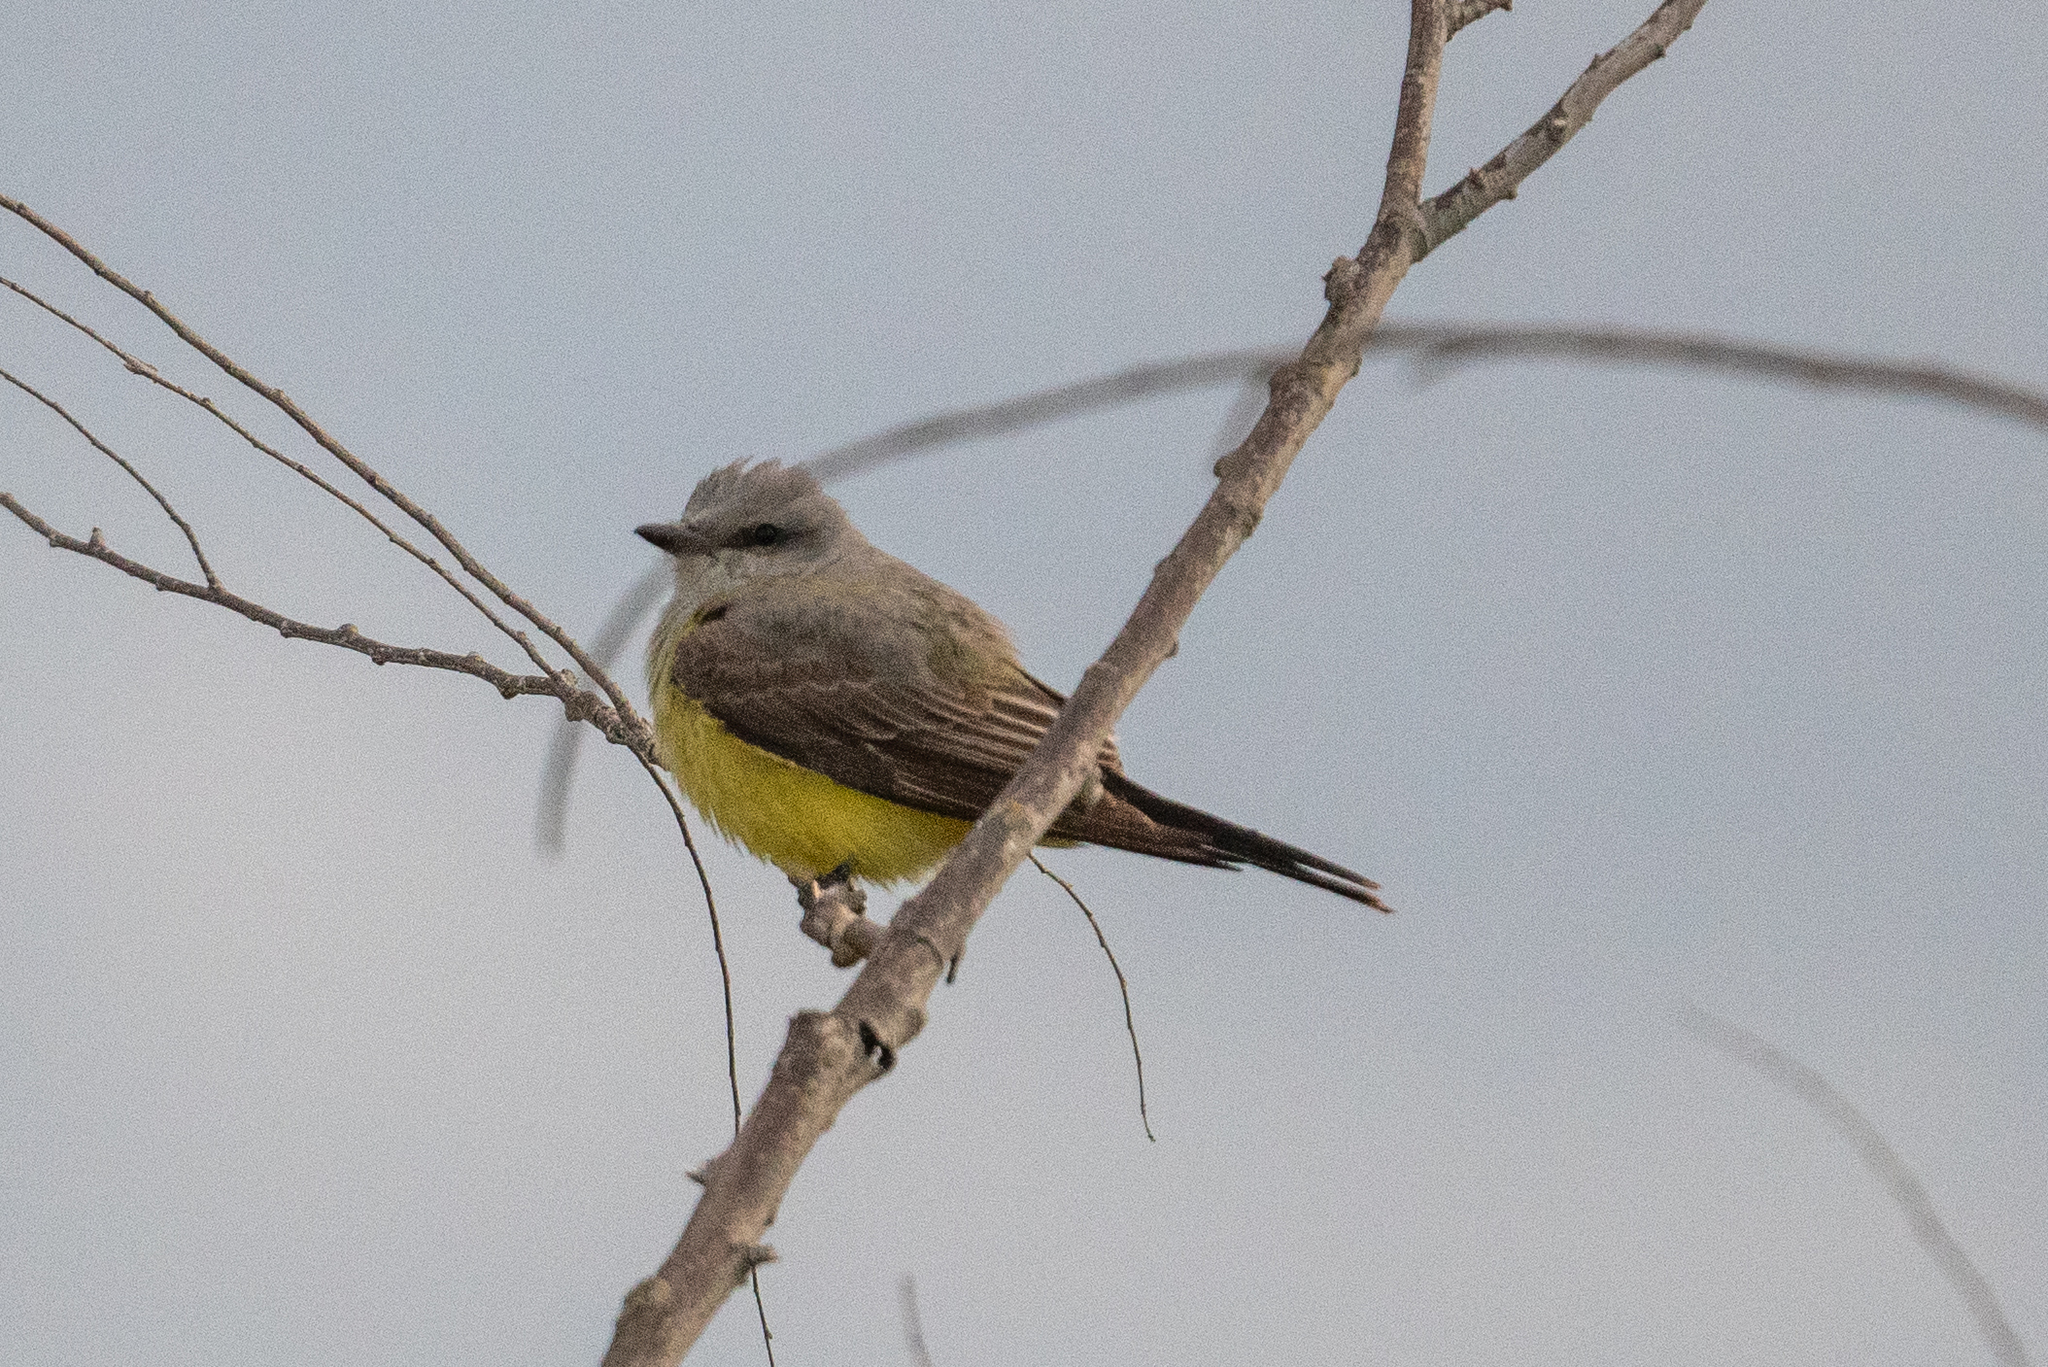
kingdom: Animalia
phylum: Chordata
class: Aves
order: Passeriformes
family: Tyrannidae
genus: Tyrannus
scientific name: Tyrannus verticalis
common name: Western kingbird
